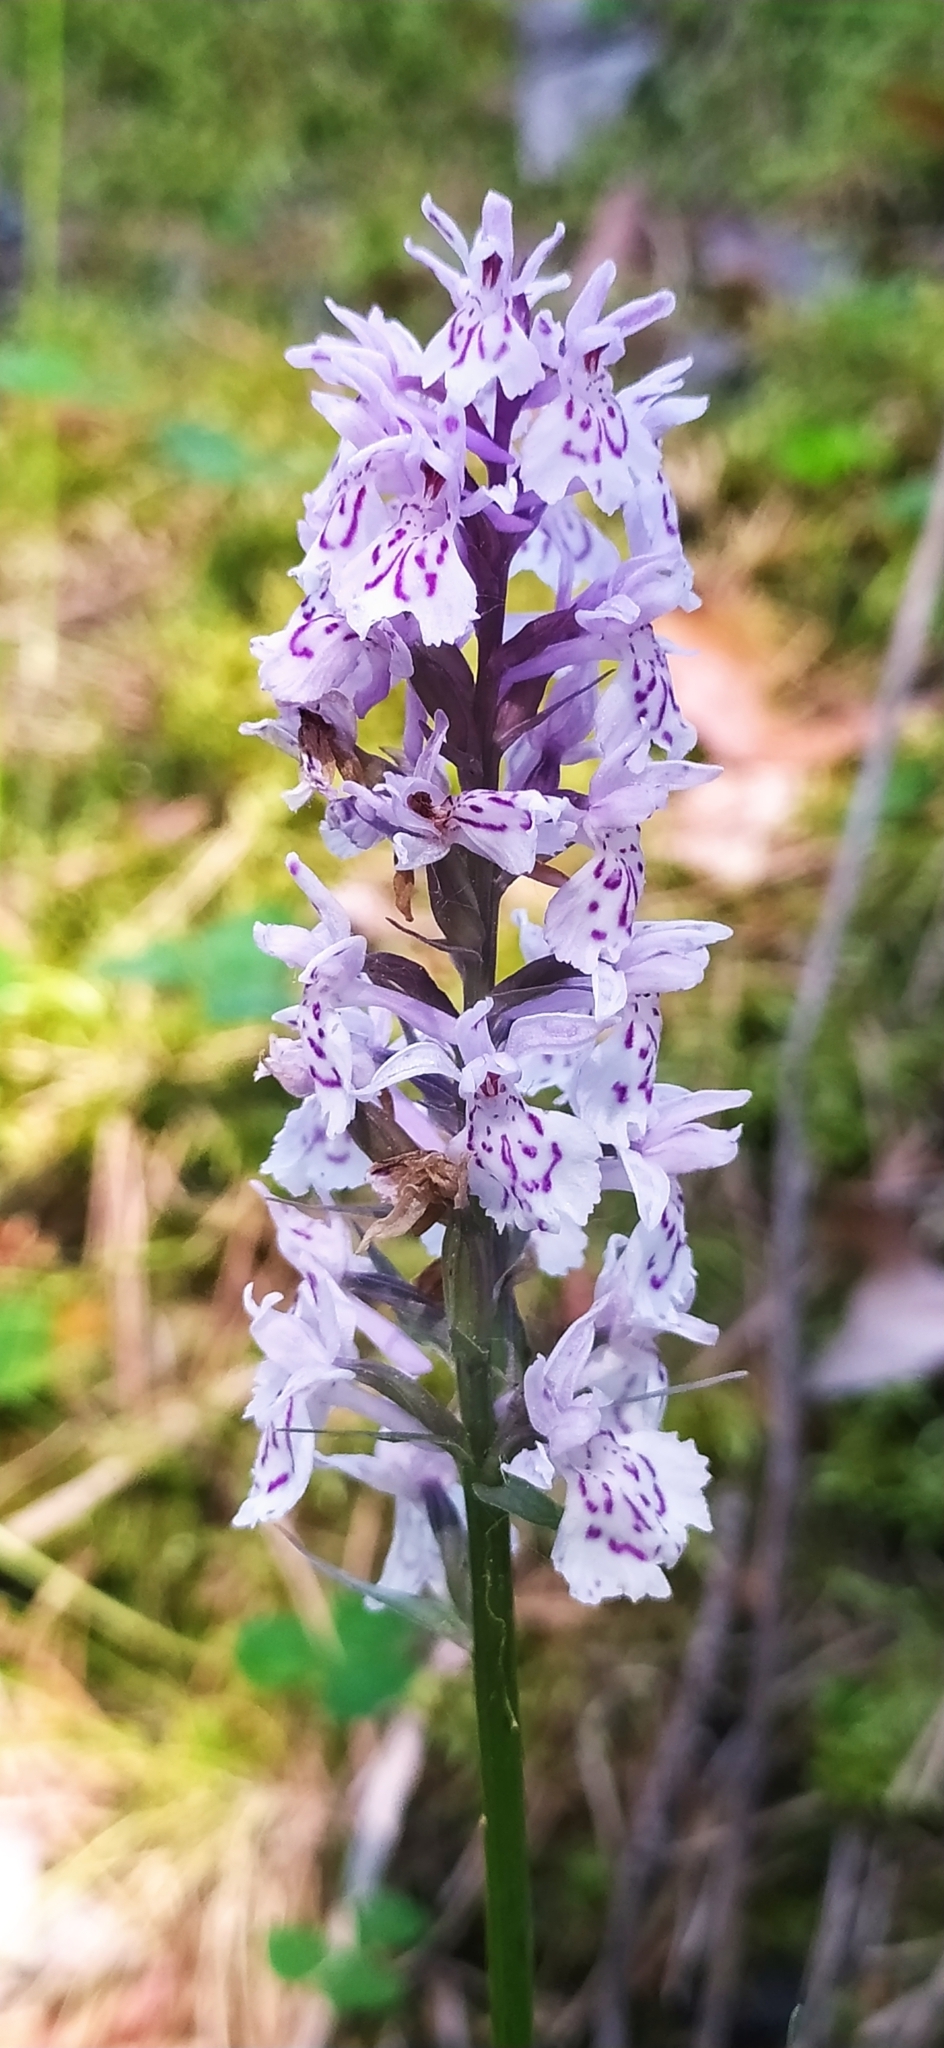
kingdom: Plantae
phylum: Tracheophyta
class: Liliopsida
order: Asparagales
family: Orchidaceae
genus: Dactylorhiza
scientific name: Dactylorhiza maculata
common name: Heath spotted-orchid
